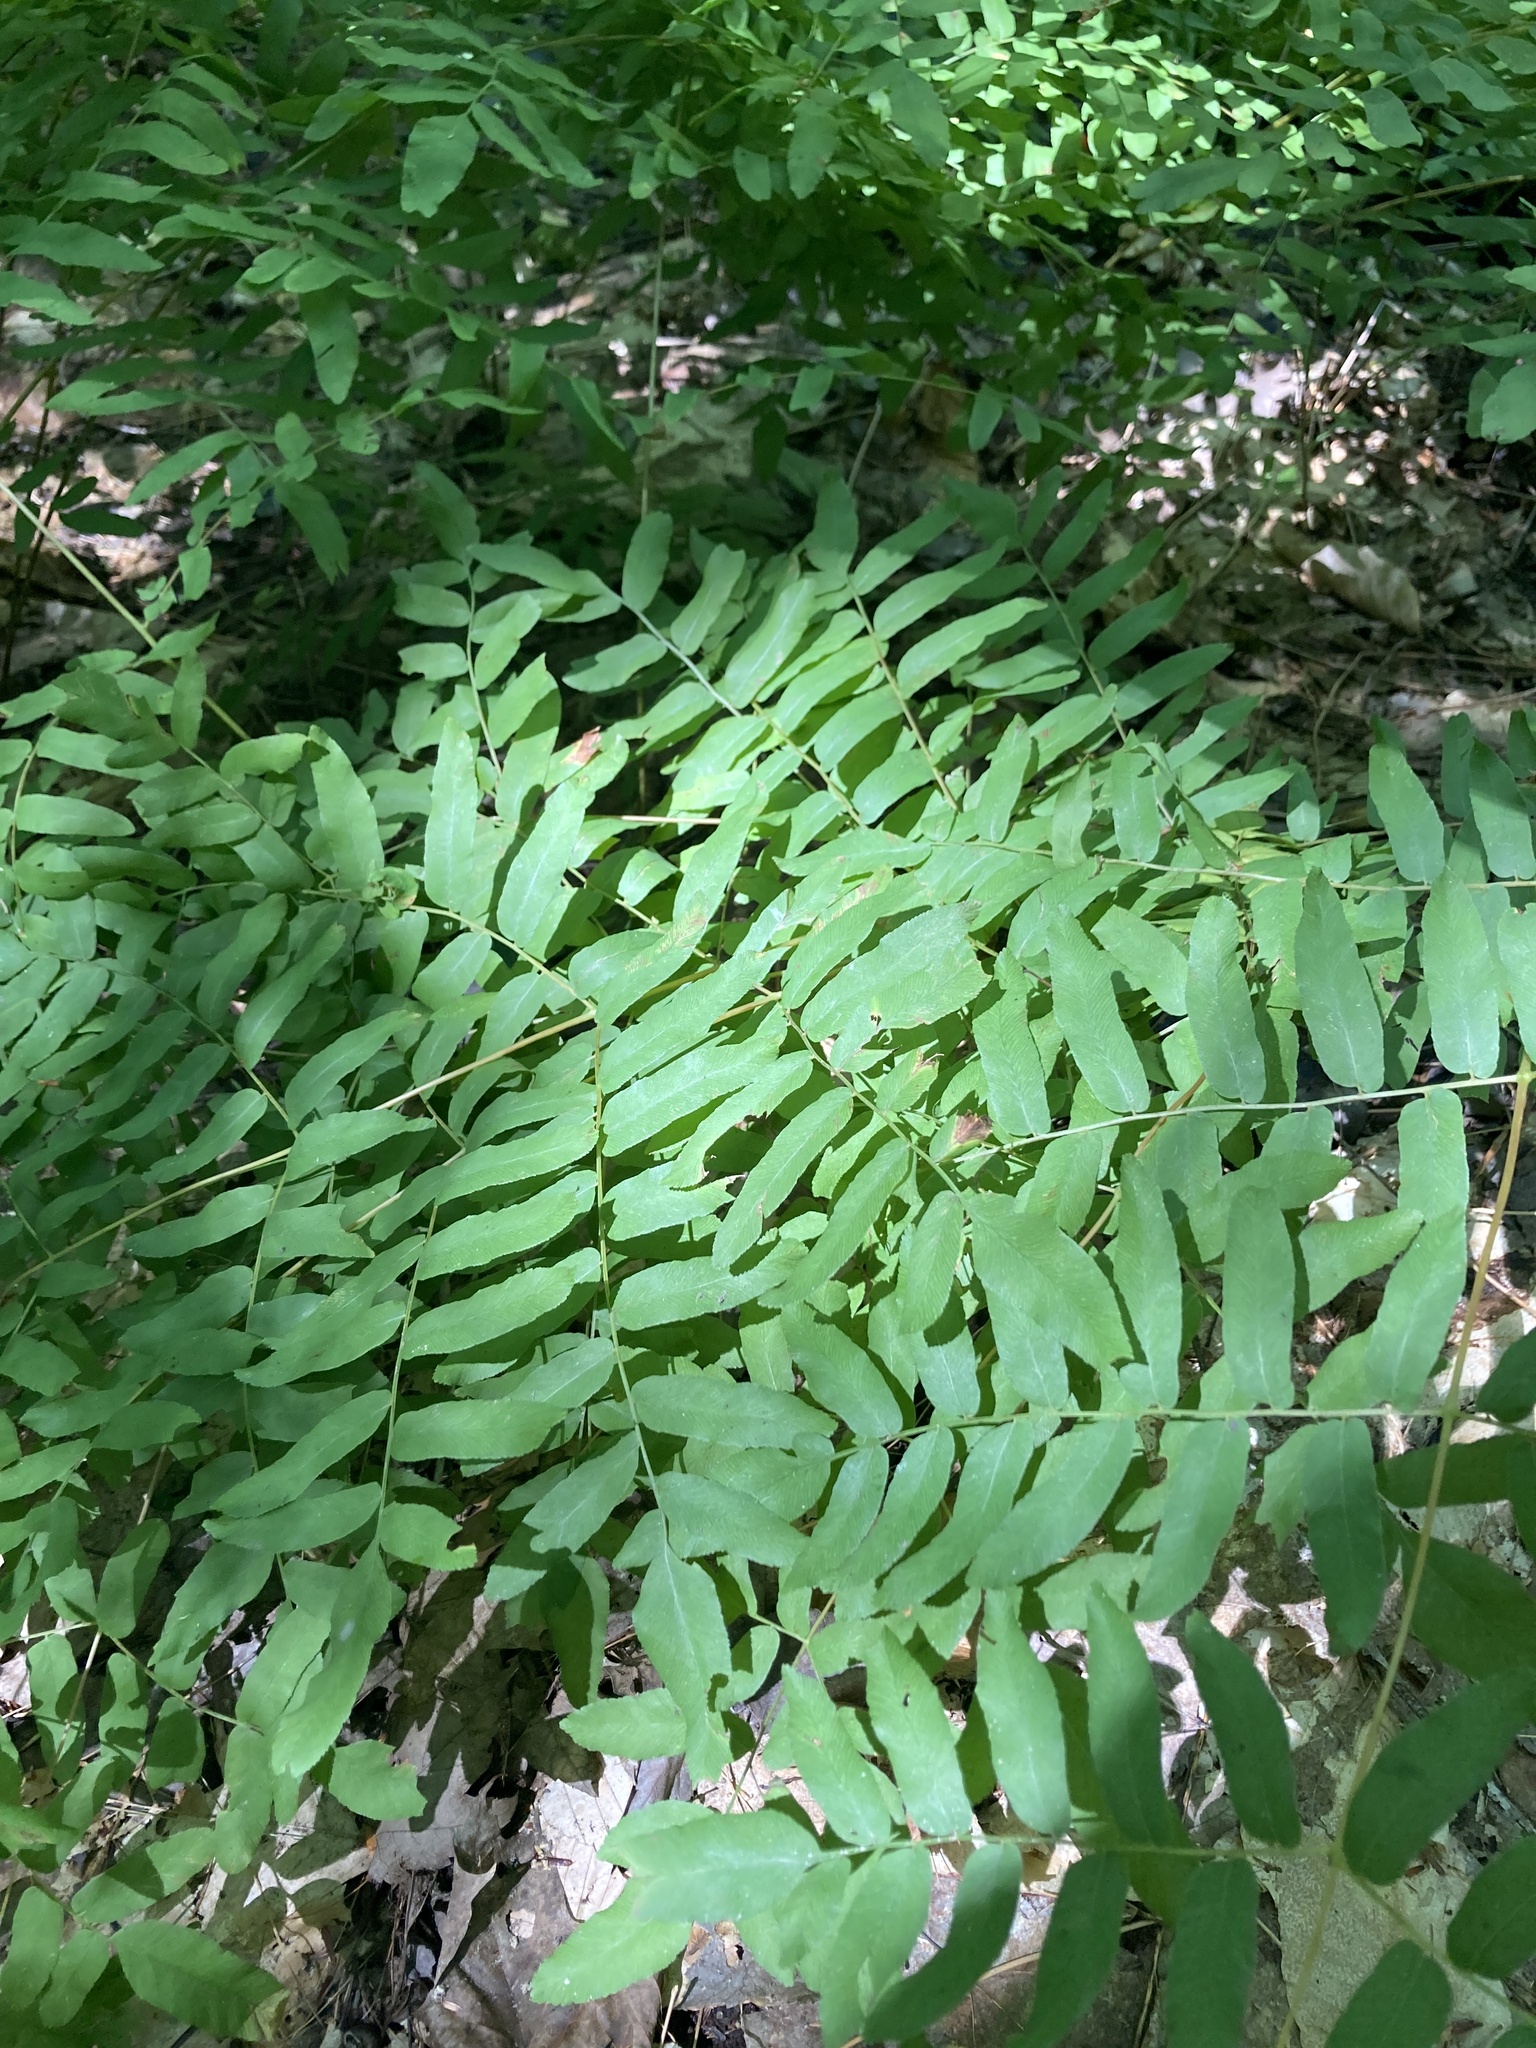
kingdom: Plantae
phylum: Tracheophyta
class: Polypodiopsida
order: Osmundales
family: Osmundaceae
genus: Osmunda
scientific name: Osmunda spectabilis
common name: American royal fern
